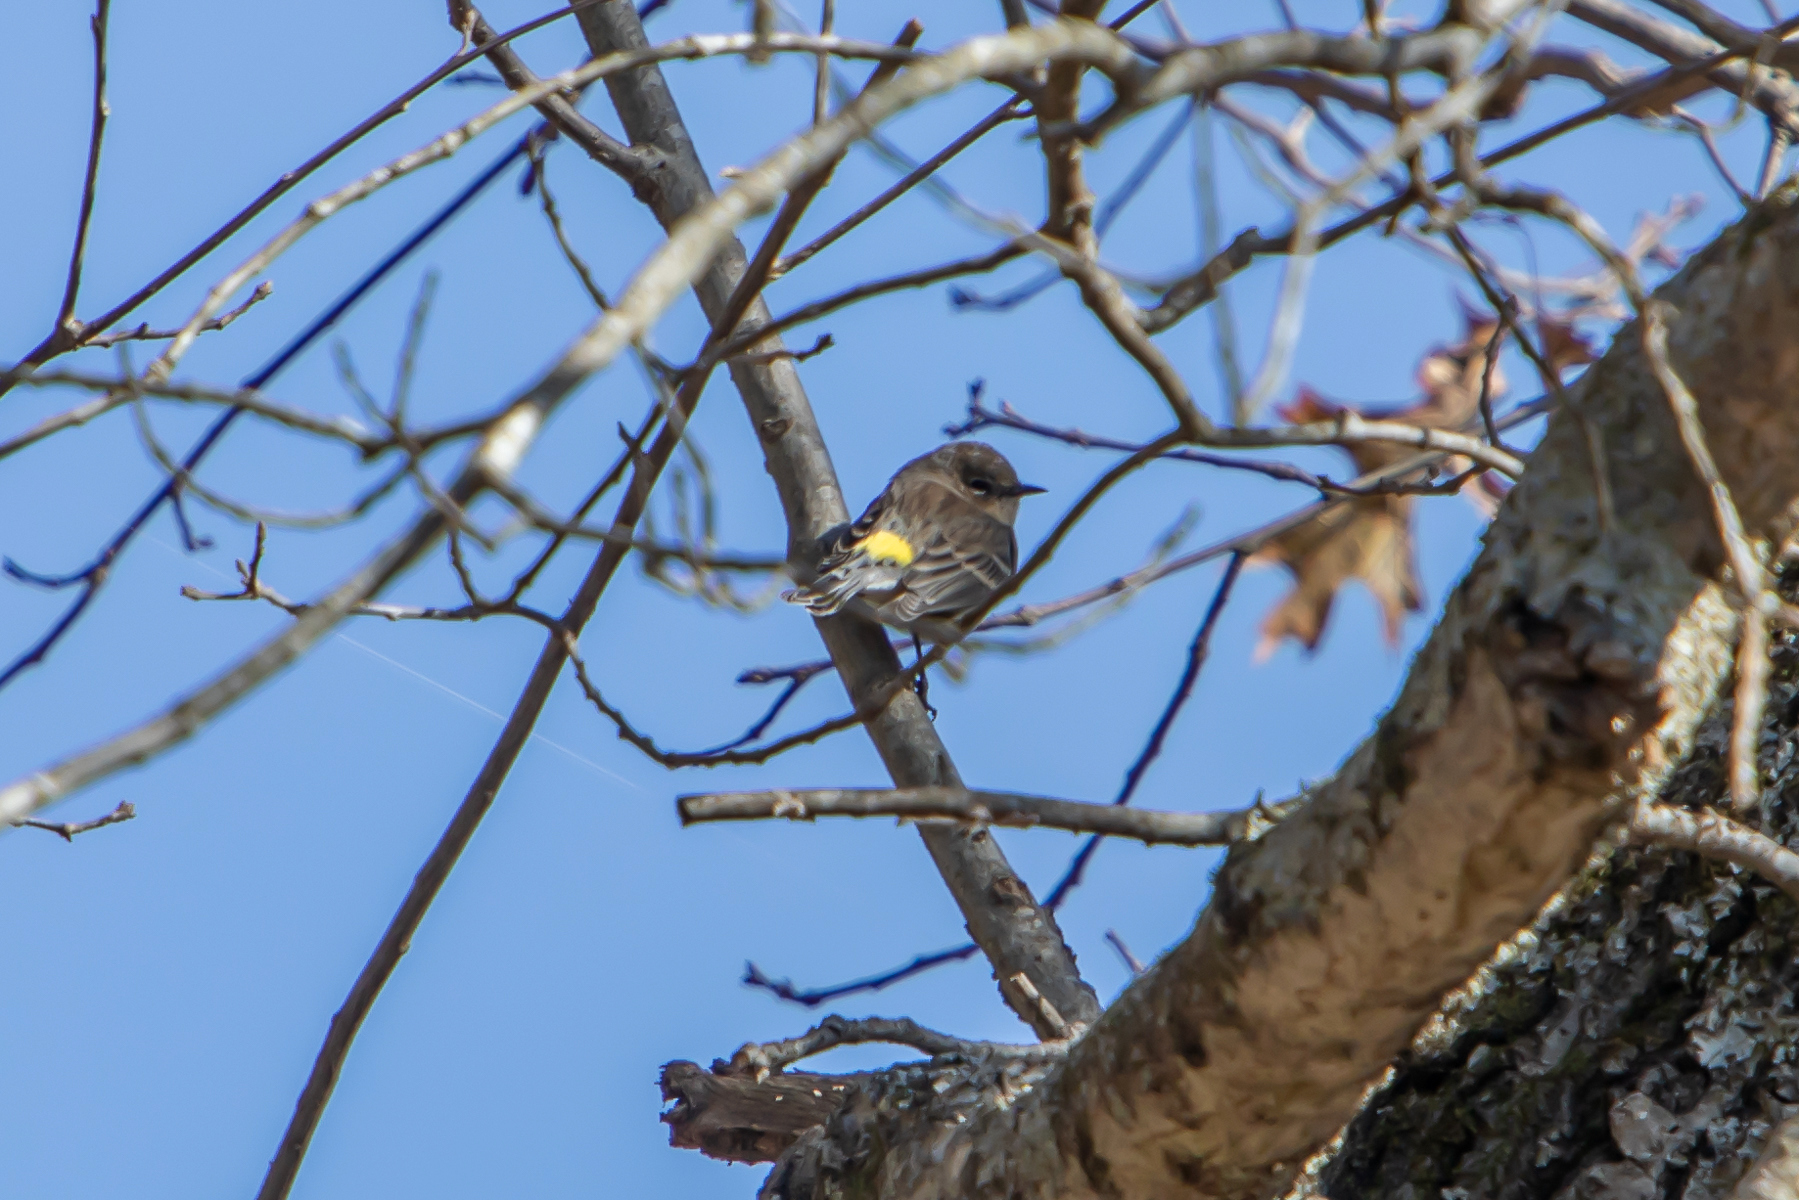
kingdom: Animalia
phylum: Chordata
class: Aves
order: Passeriformes
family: Parulidae
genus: Setophaga
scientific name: Setophaga coronata
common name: Myrtle warbler
